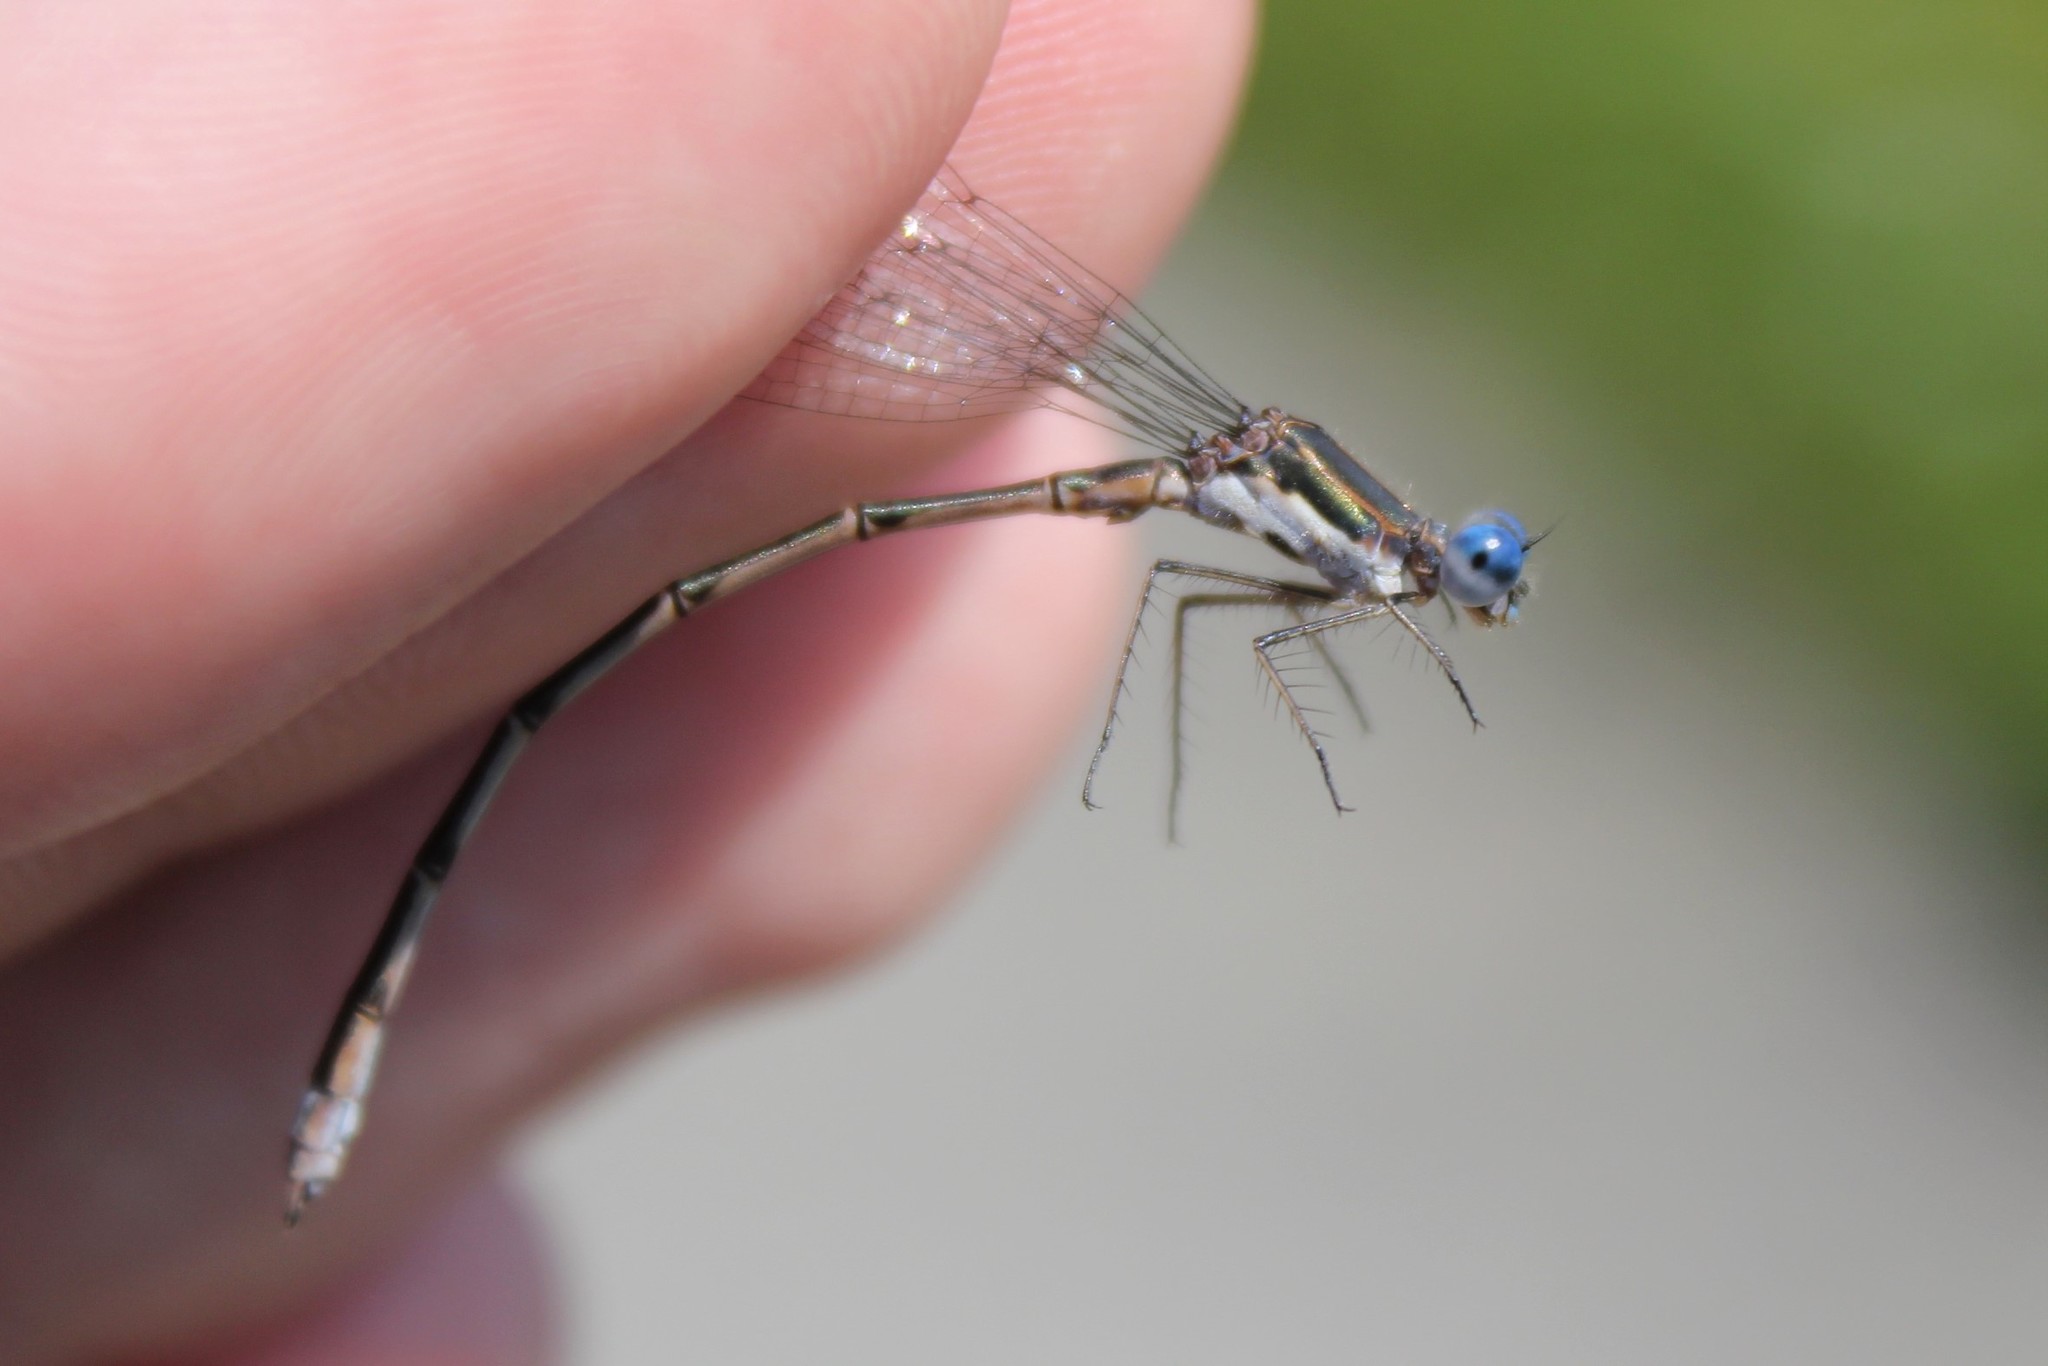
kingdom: Animalia
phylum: Arthropoda
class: Insecta
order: Odonata
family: Lestidae
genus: Lestes
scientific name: Lestes congener
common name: Spotted spreadwing
